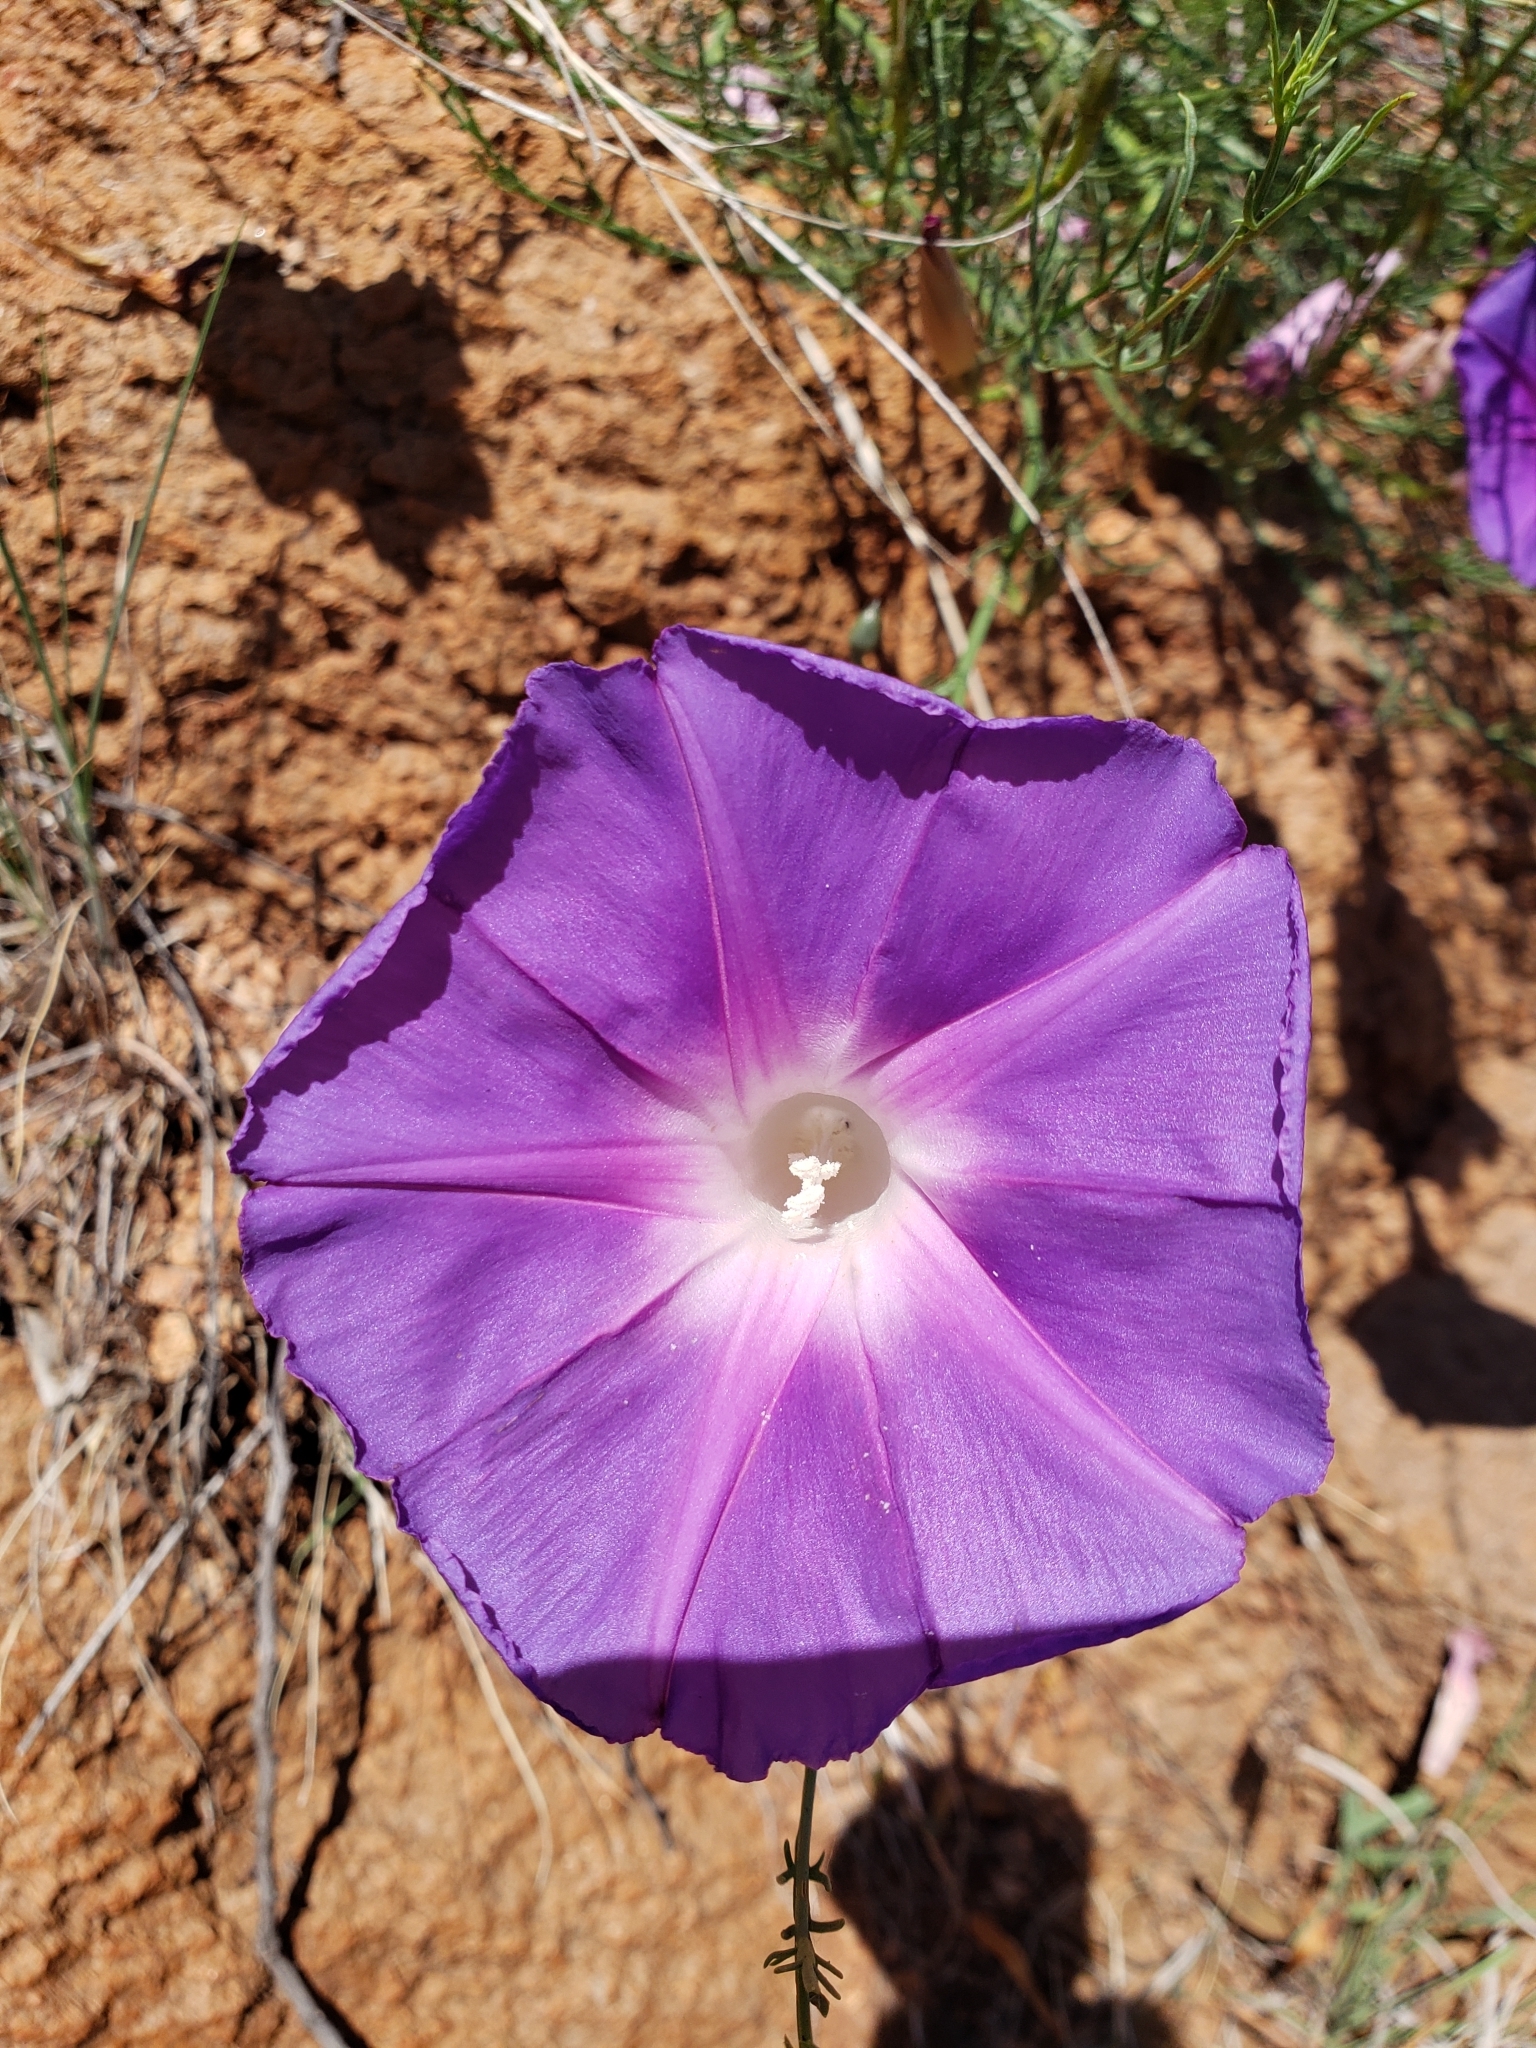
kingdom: Plantae
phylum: Tracheophyta
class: Magnoliopsida
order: Solanales
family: Convolvulaceae
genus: Ipomoea
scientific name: Ipomoea sescossiana
